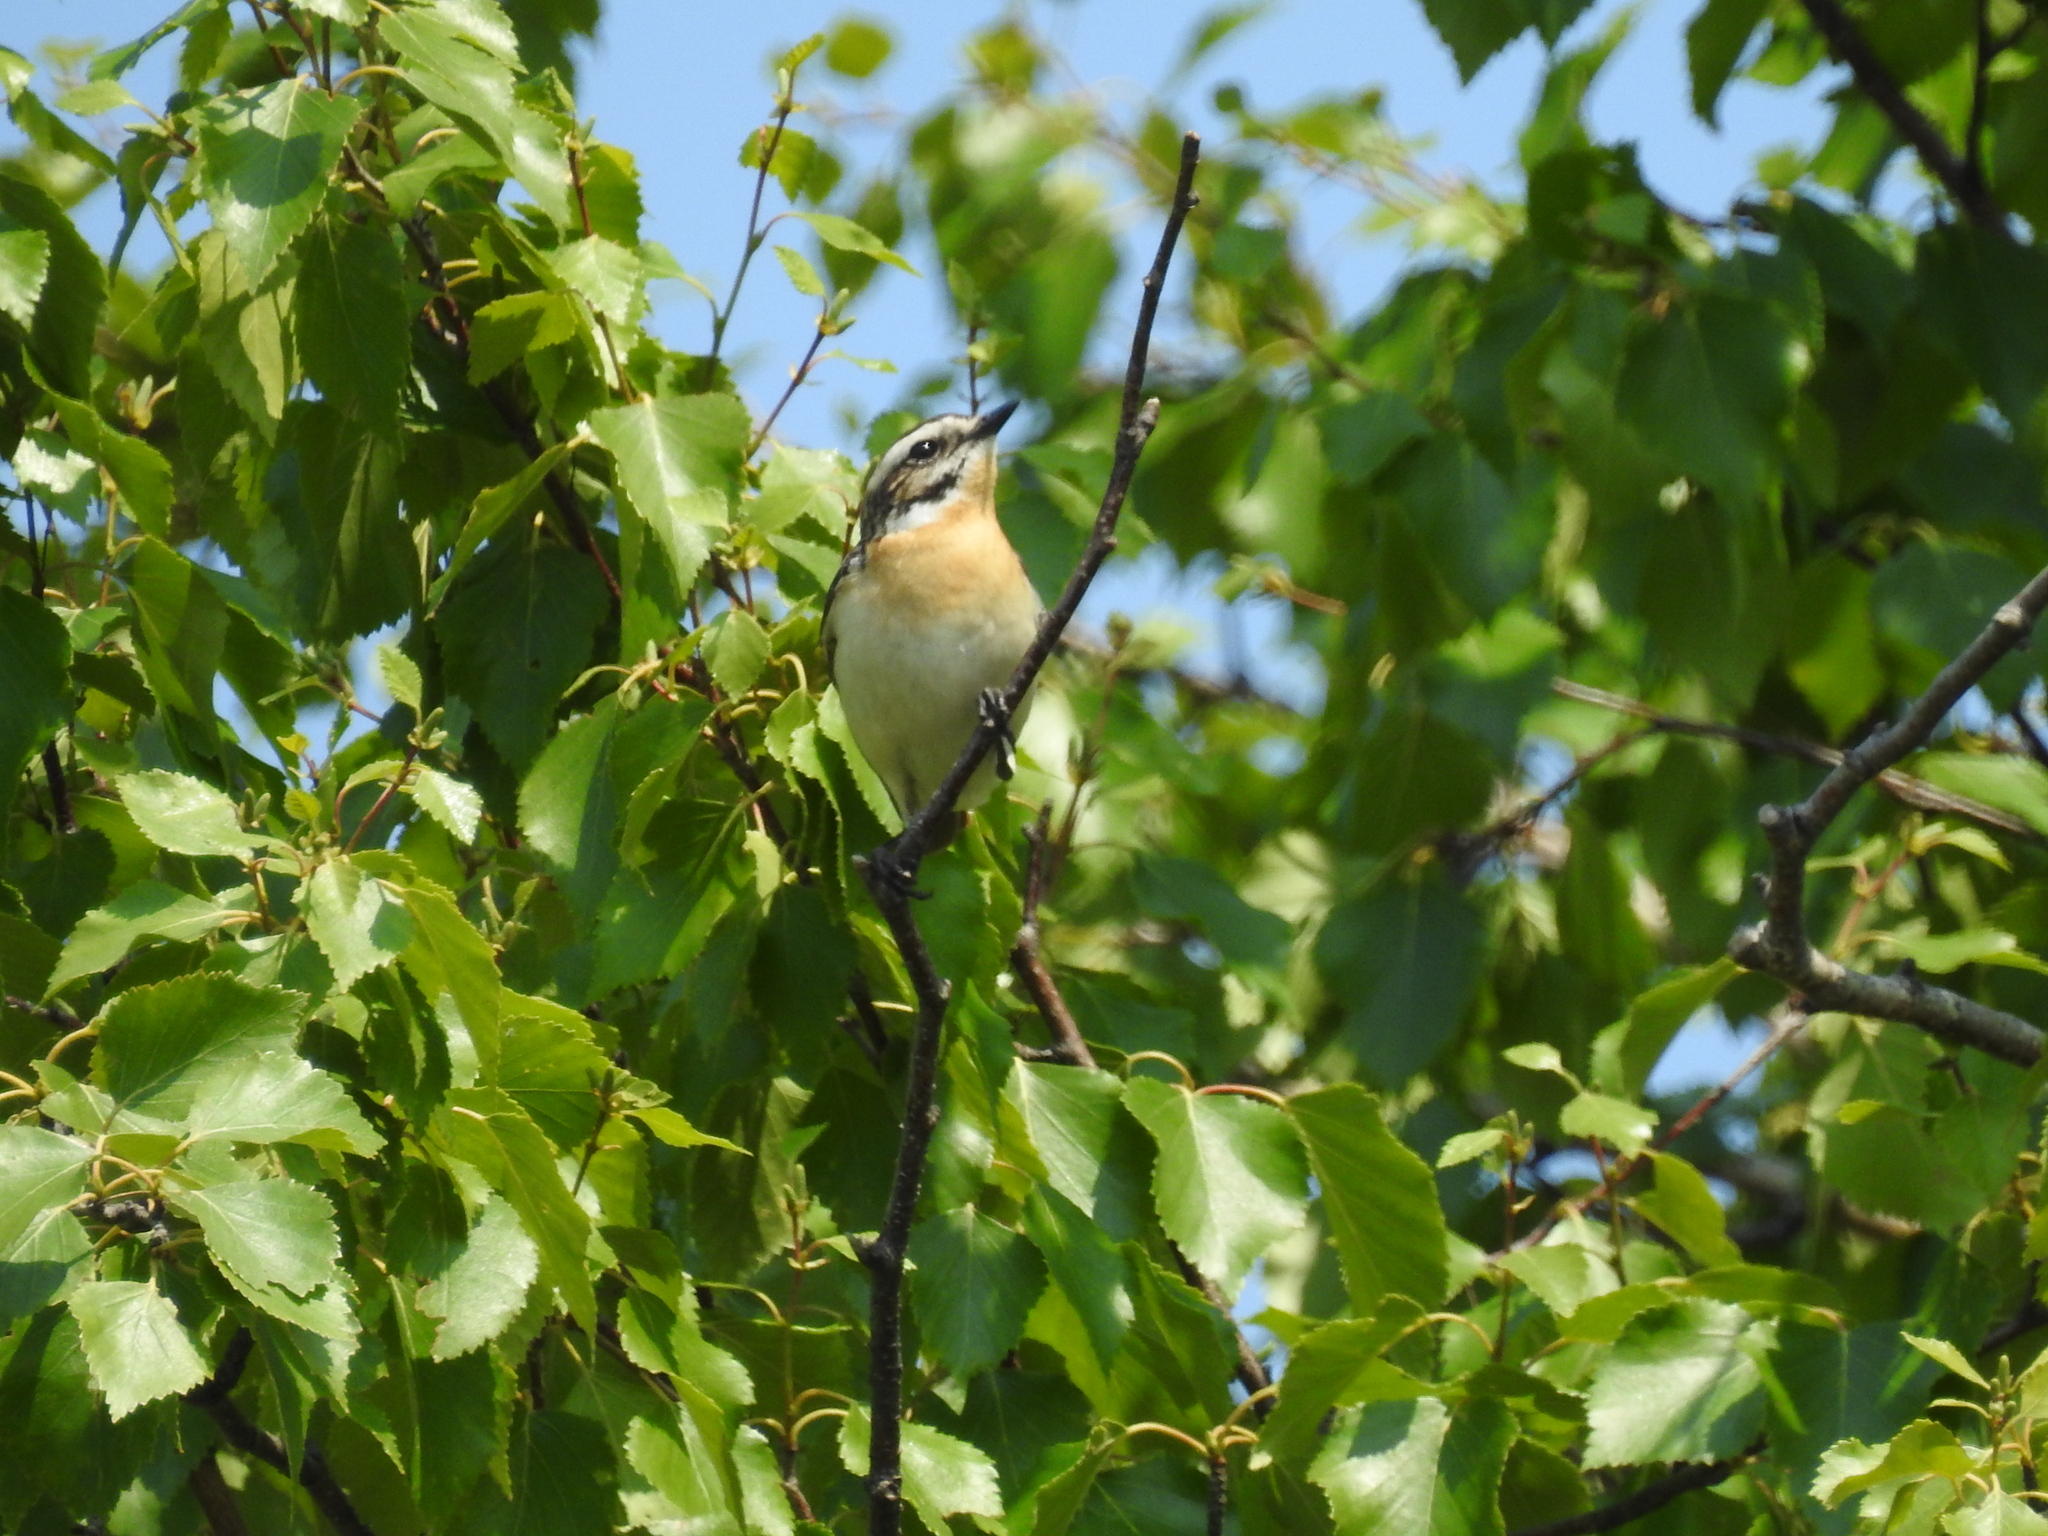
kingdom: Animalia
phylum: Chordata
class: Aves
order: Passeriformes
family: Muscicapidae
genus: Saxicola
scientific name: Saxicola rubetra
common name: Whinchat
